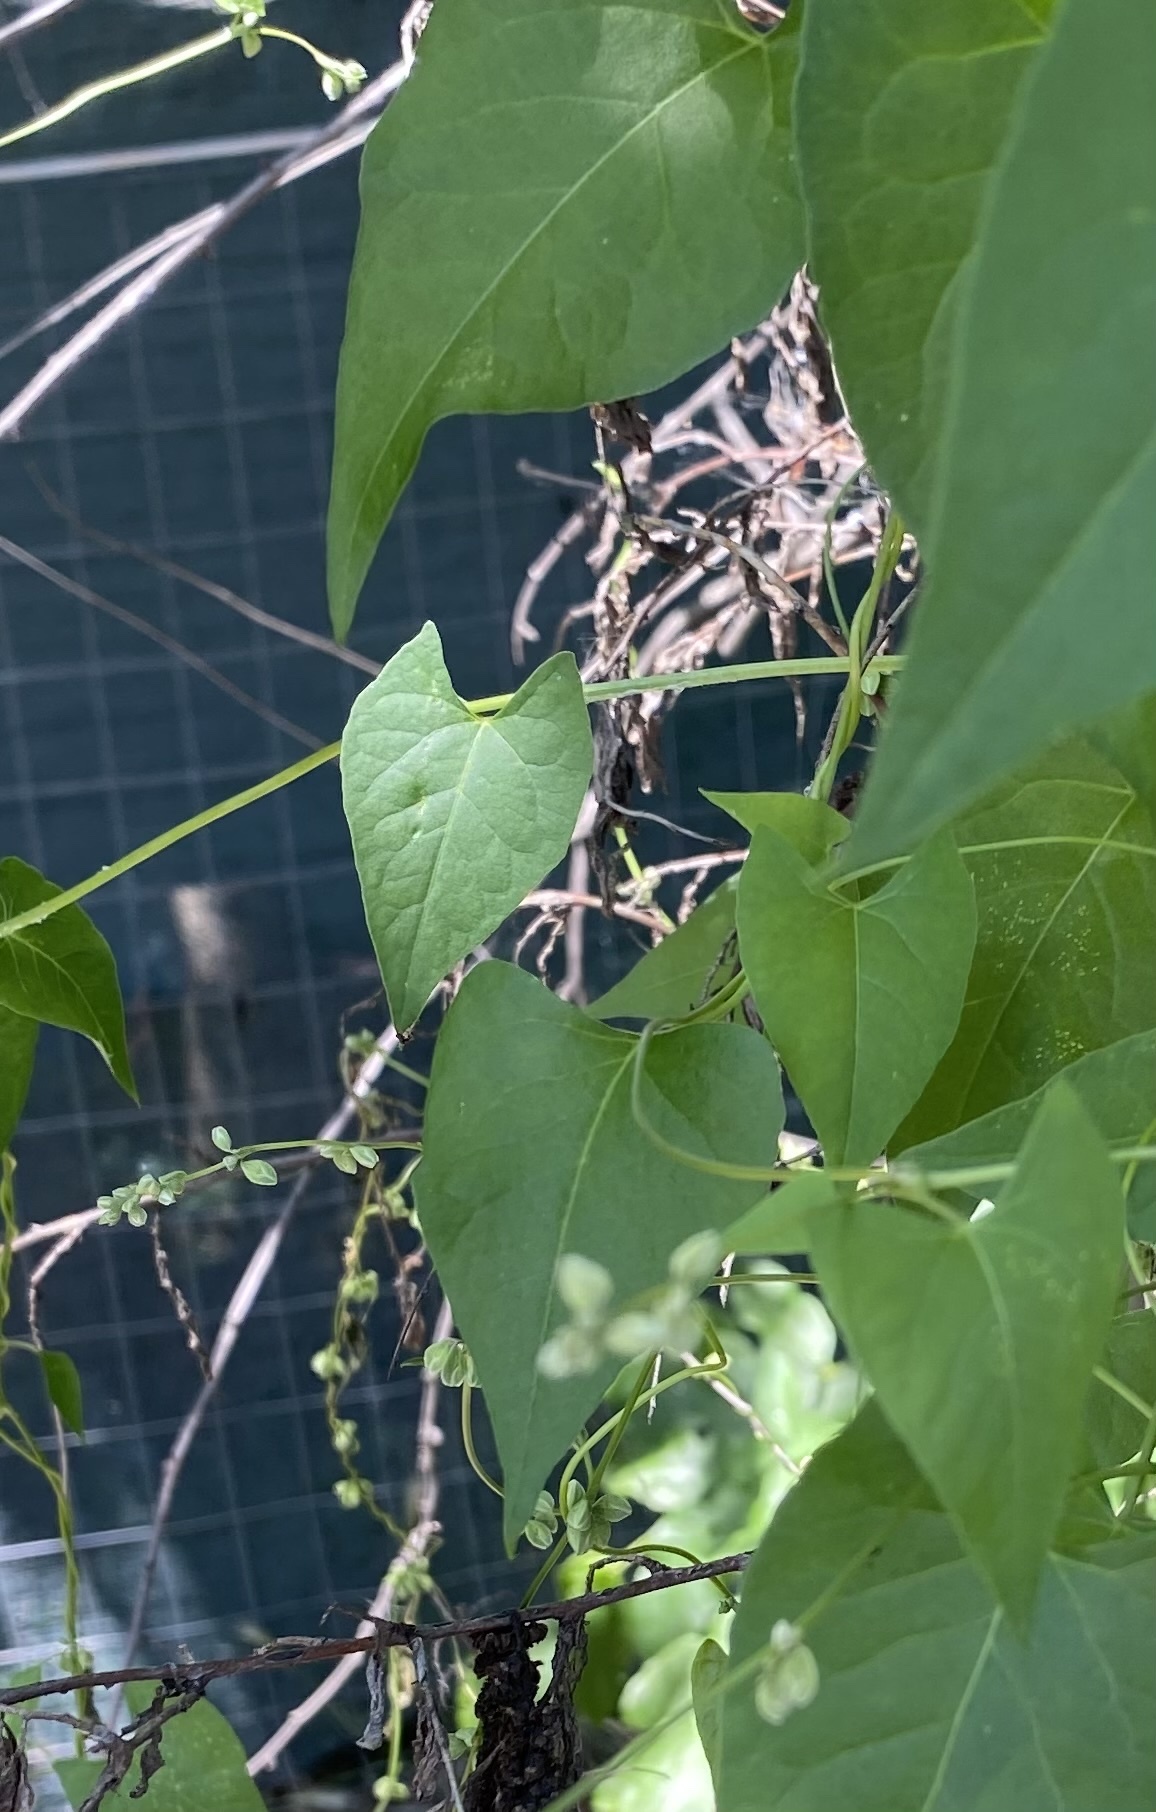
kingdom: Plantae
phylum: Tracheophyta
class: Magnoliopsida
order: Caryophyllales
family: Polygonaceae
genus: Fallopia
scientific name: Fallopia convolvulus
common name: Black bindweed
